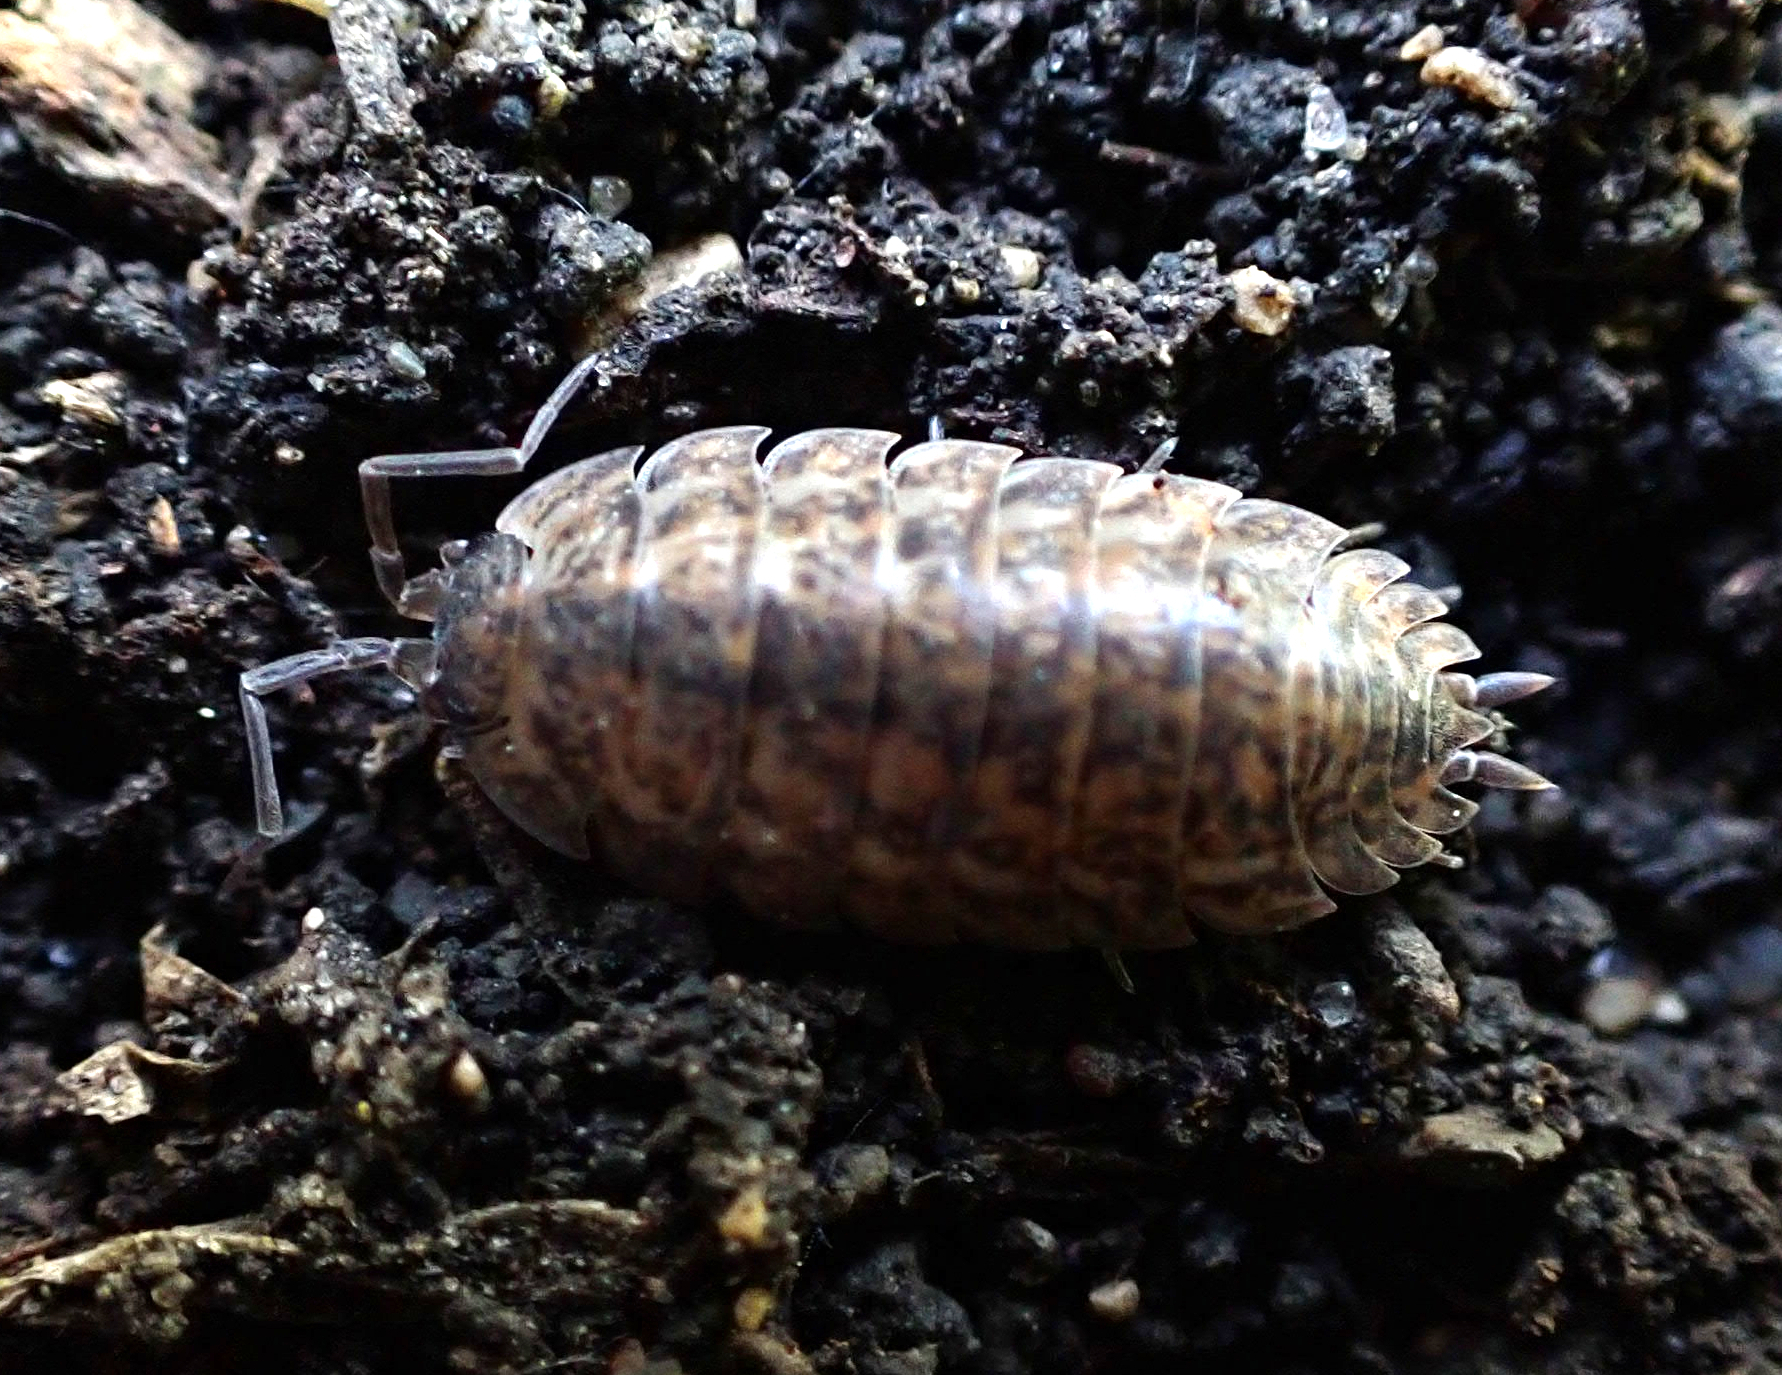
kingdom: Animalia
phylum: Arthropoda
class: Malacostraca
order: Isopoda
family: Trachelipodidae
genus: Trachelipus
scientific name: Trachelipus rathkii
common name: Isopod
